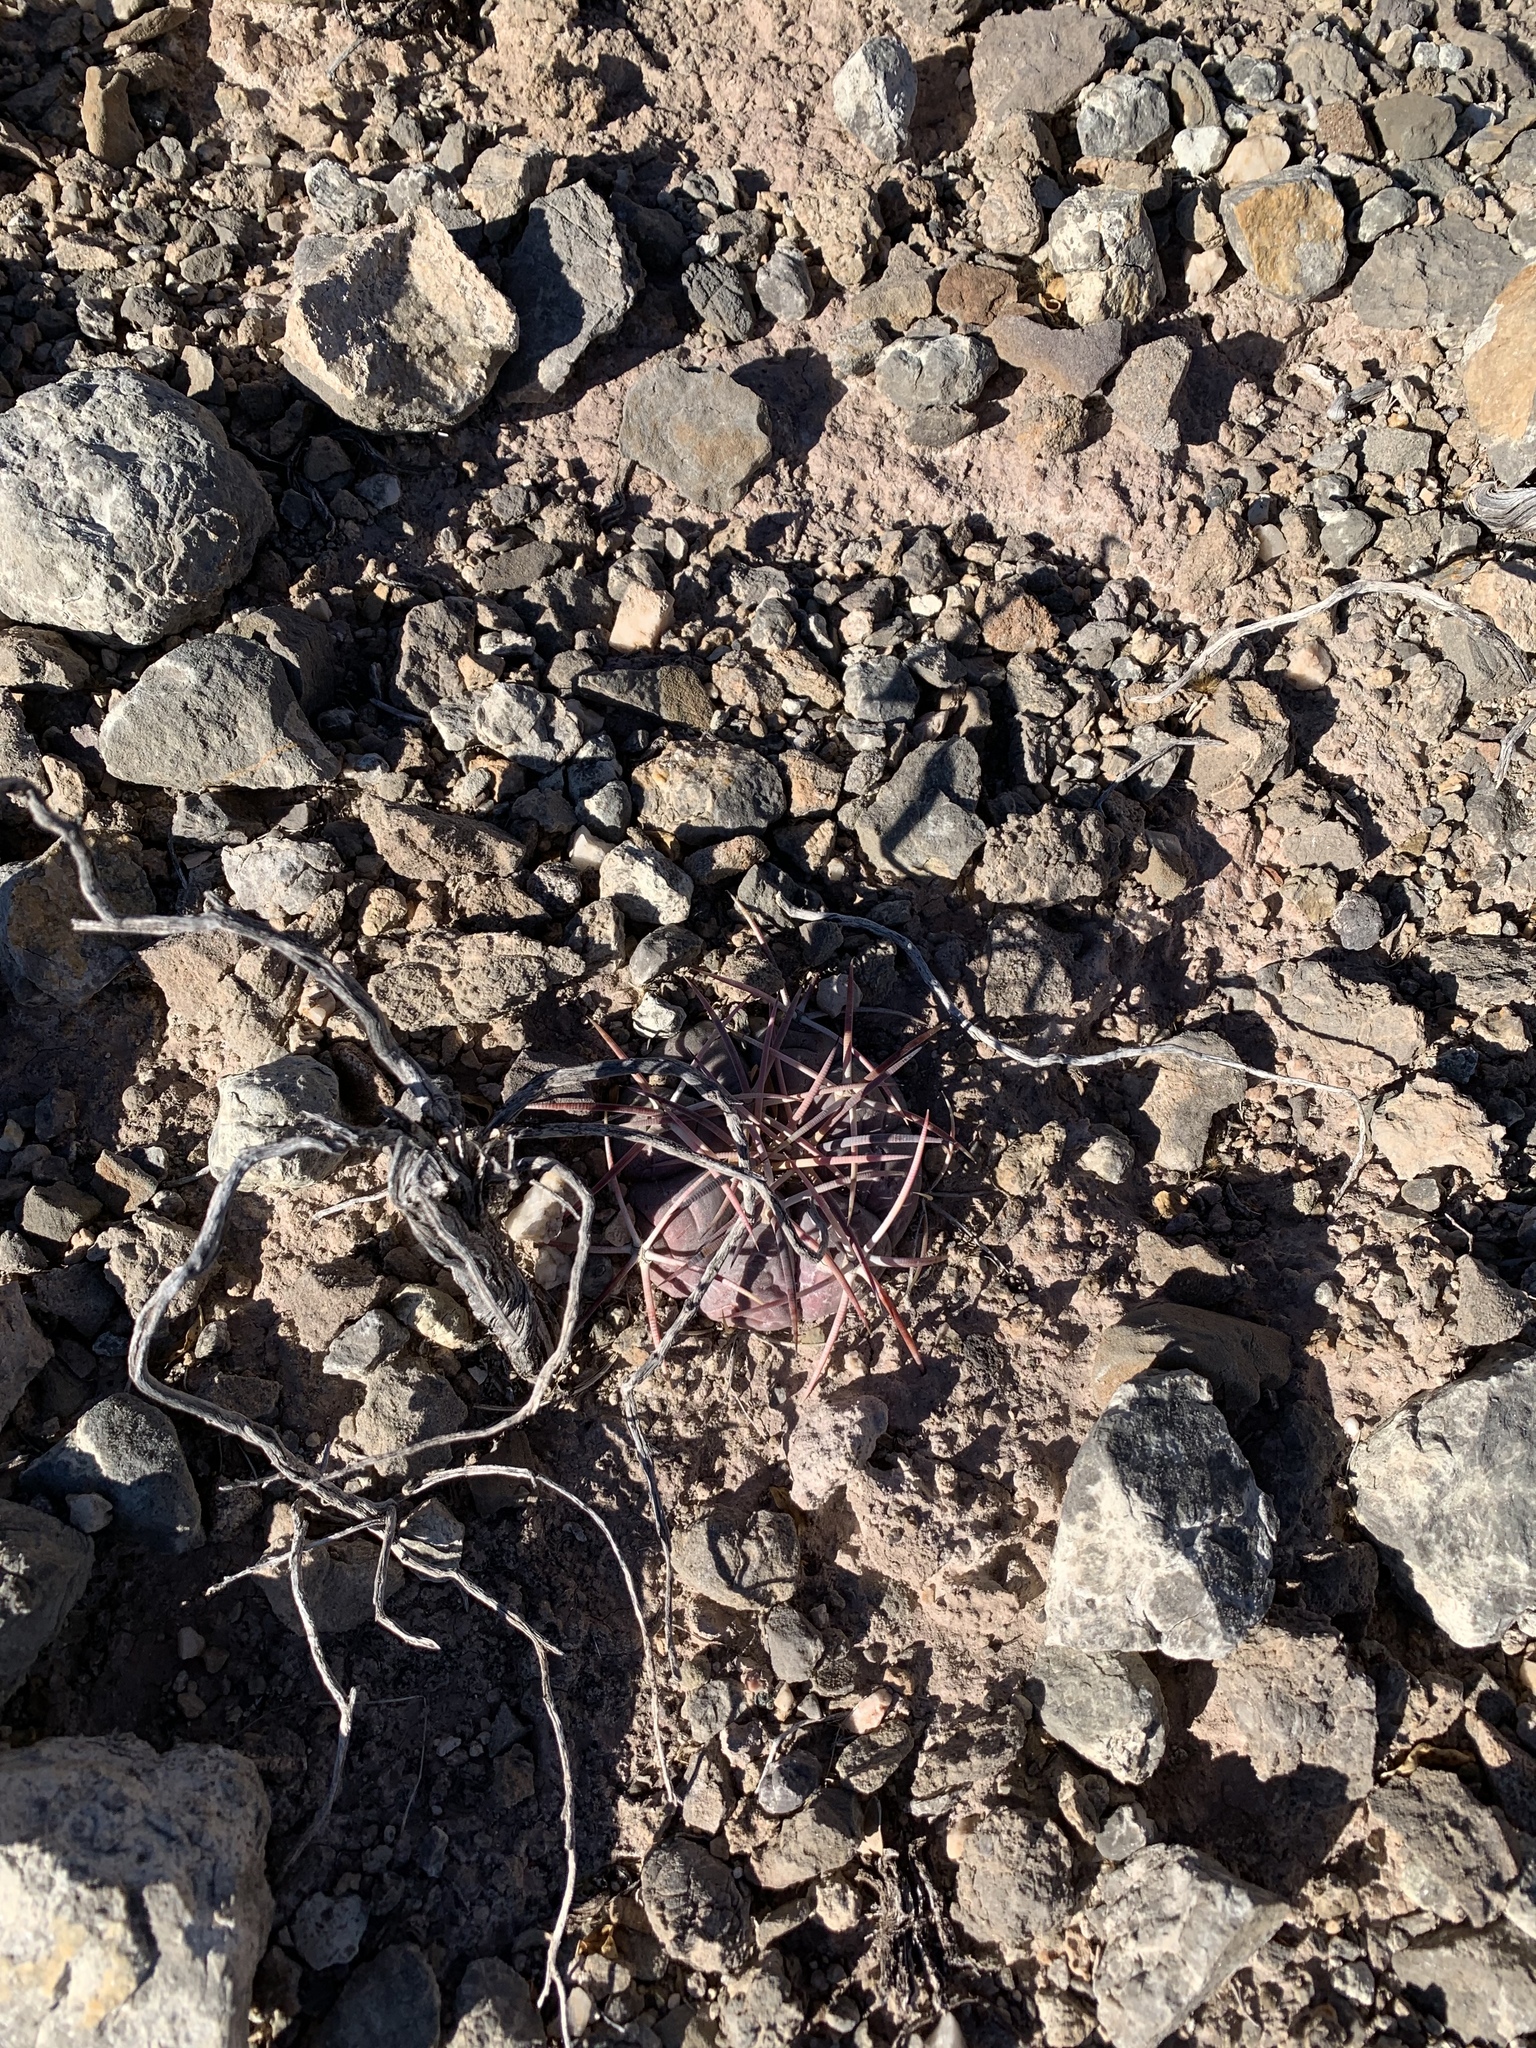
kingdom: Plantae
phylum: Tracheophyta
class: Magnoliopsida
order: Caryophyllales
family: Cactaceae
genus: Echinocactus
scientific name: Echinocactus horizonthalonius
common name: Devilshead
